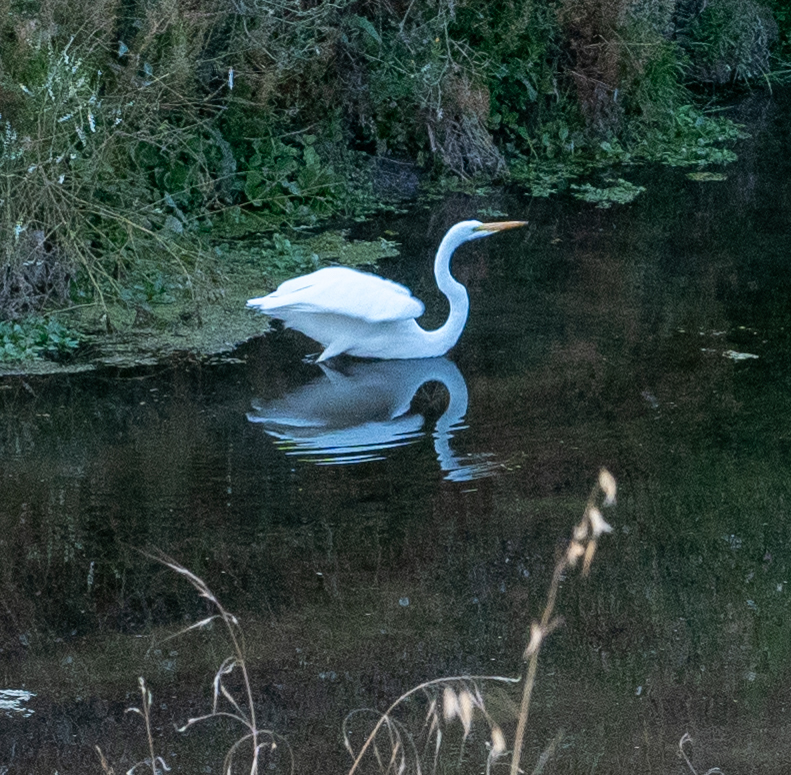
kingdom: Animalia
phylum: Chordata
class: Aves
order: Pelecaniformes
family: Ardeidae
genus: Ardea
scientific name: Ardea alba
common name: Great egret
